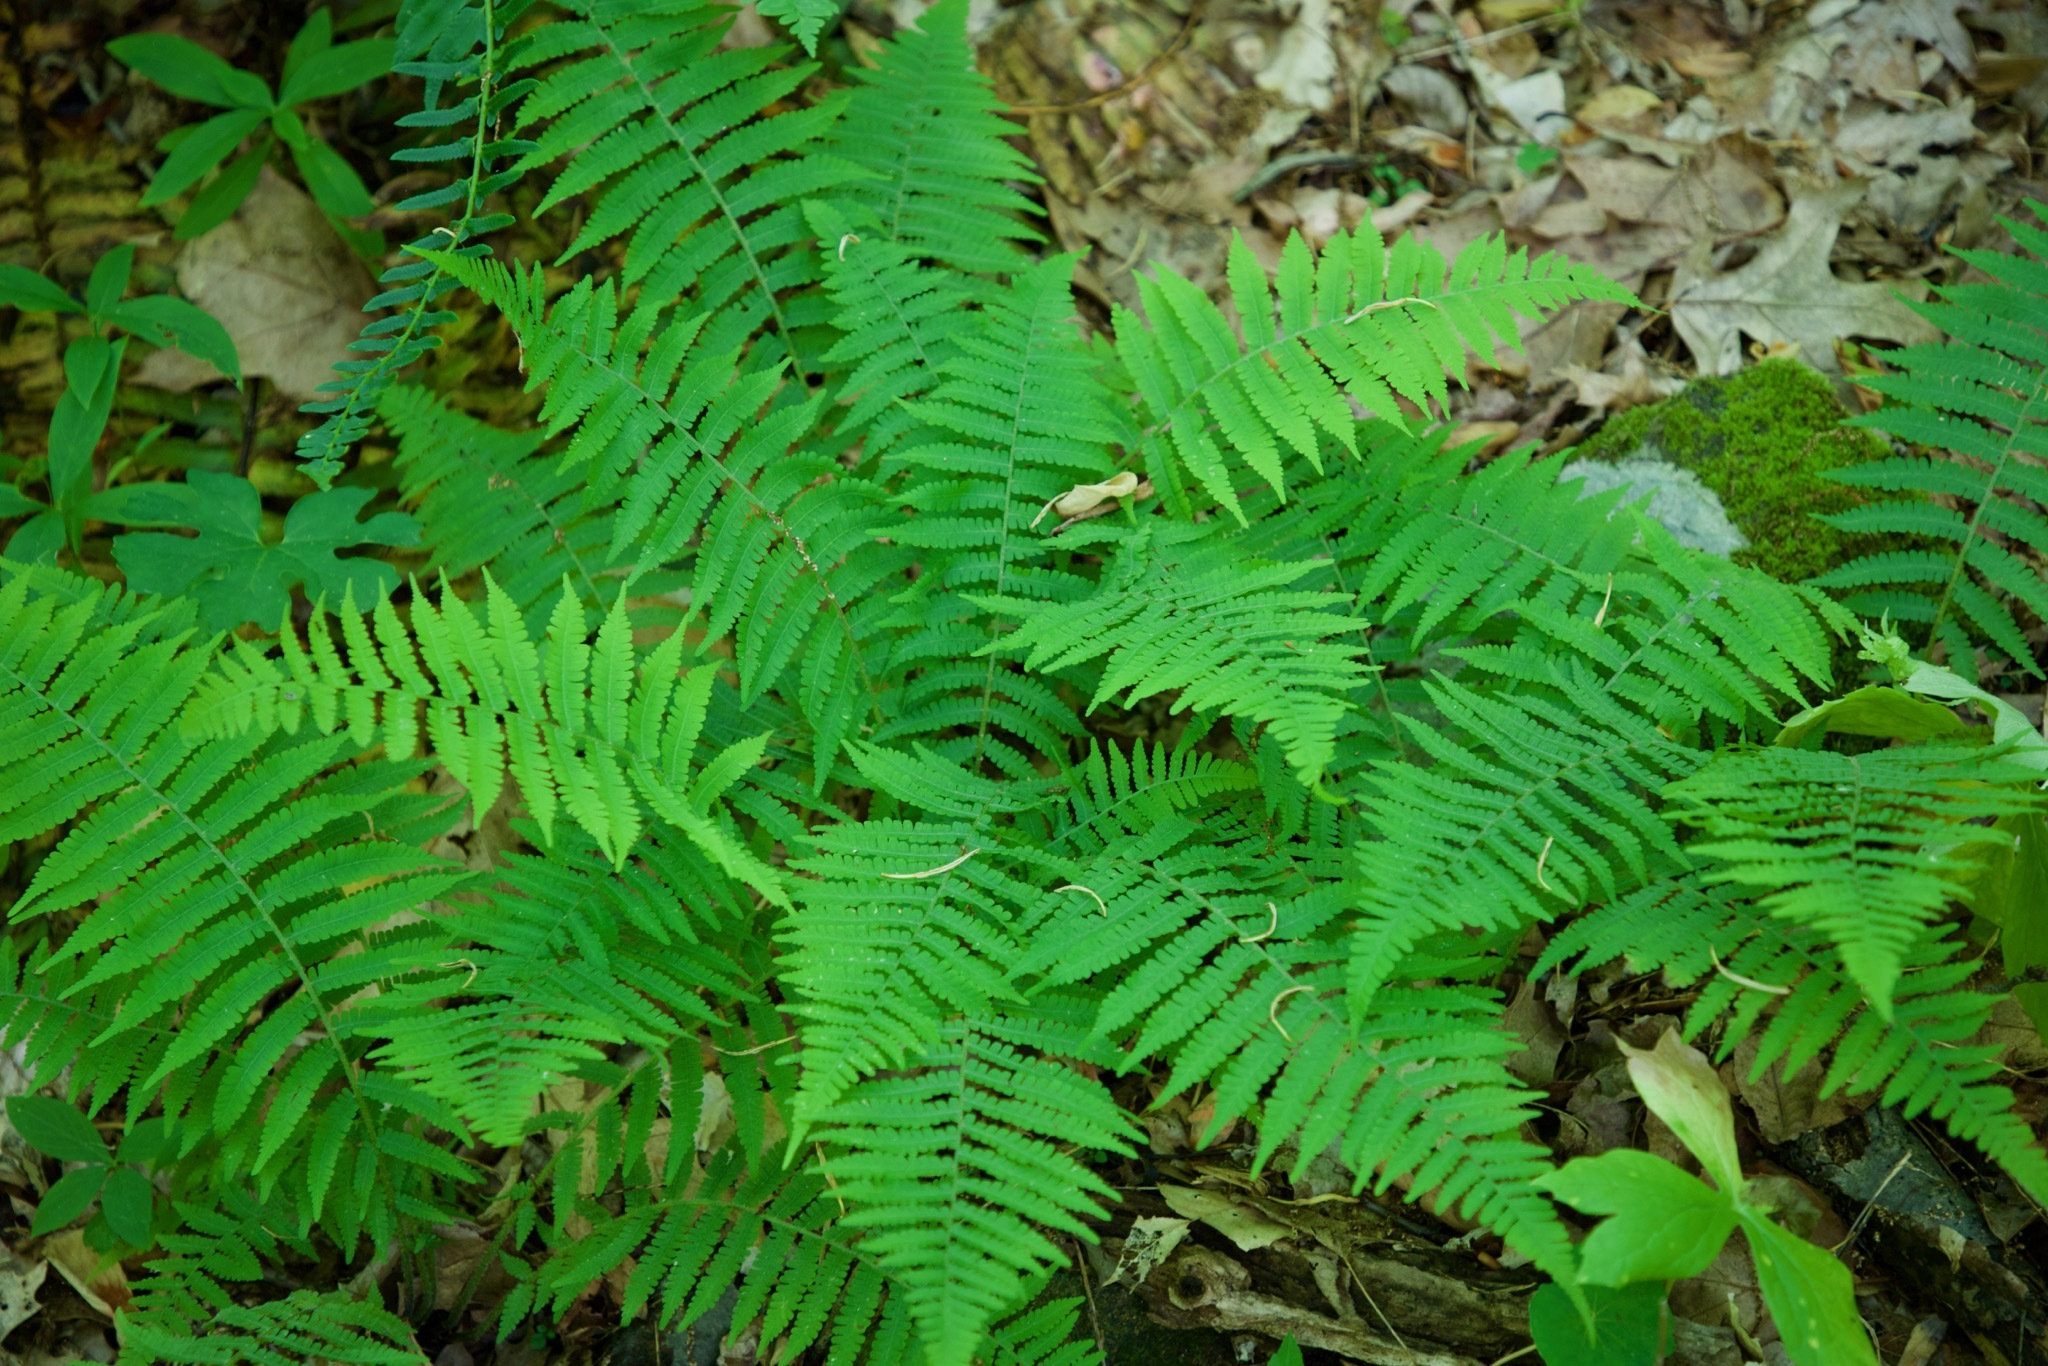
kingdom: Plantae
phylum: Tracheophyta
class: Polypodiopsida
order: Polypodiales
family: Athyriaceae
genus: Deparia
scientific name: Deparia acrostichoides
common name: Silver false spleenwort
